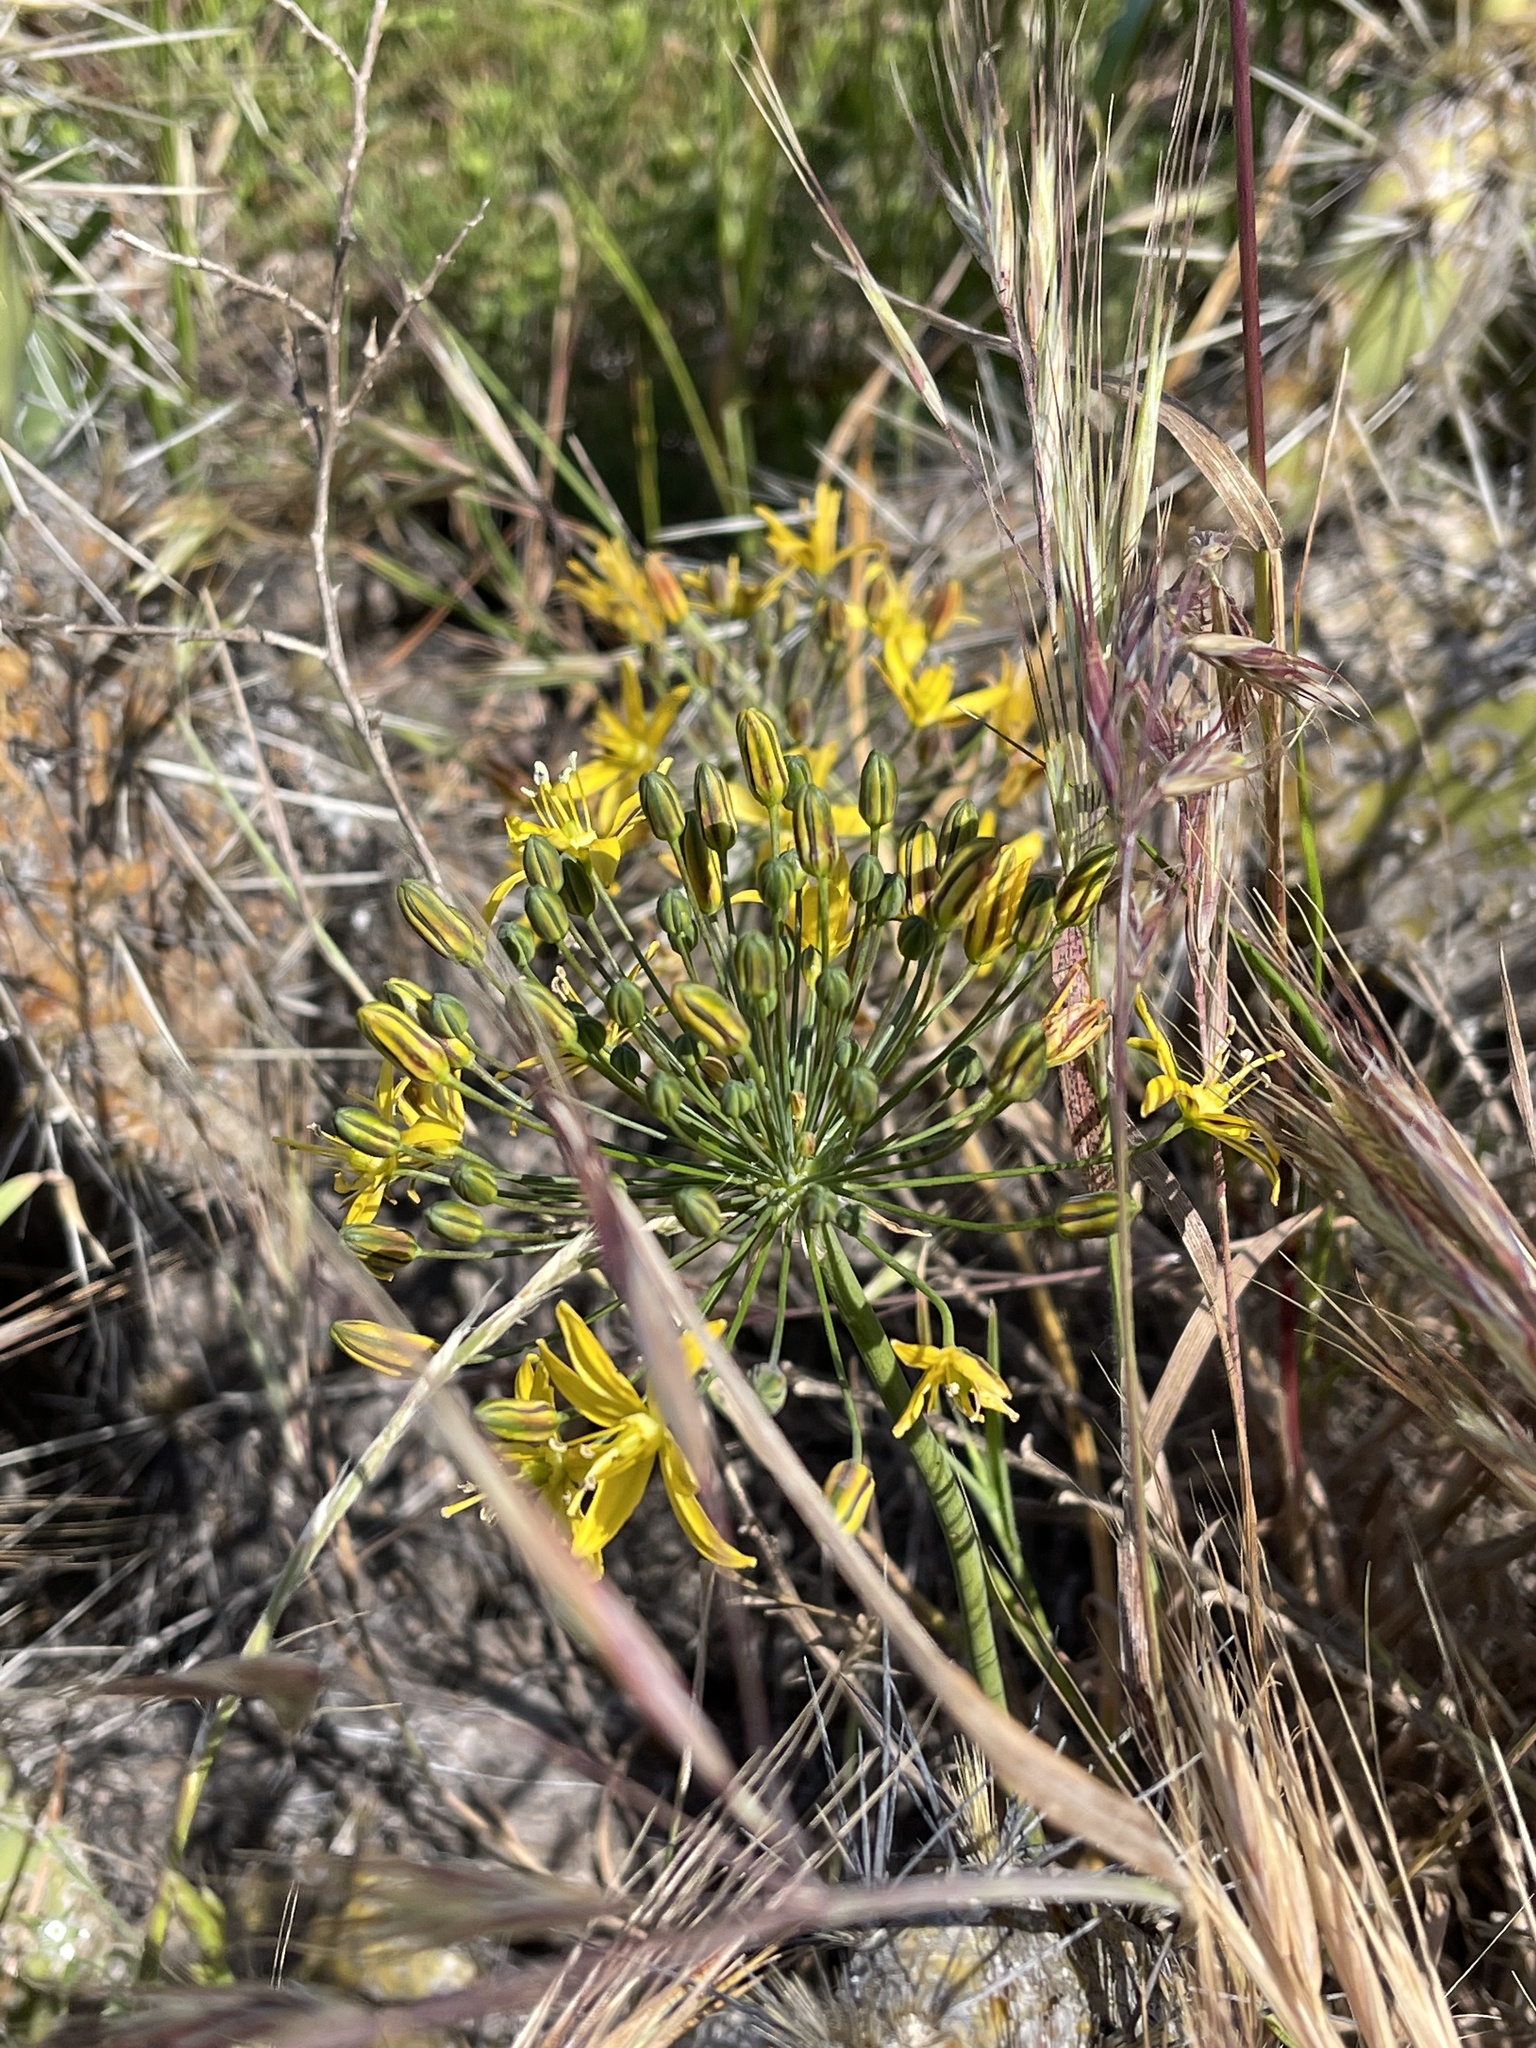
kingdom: Plantae
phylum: Tracheophyta
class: Liliopsida
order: Asparagales
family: Asparagaceae
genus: Bloomeria
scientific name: Bloomeria crocea
